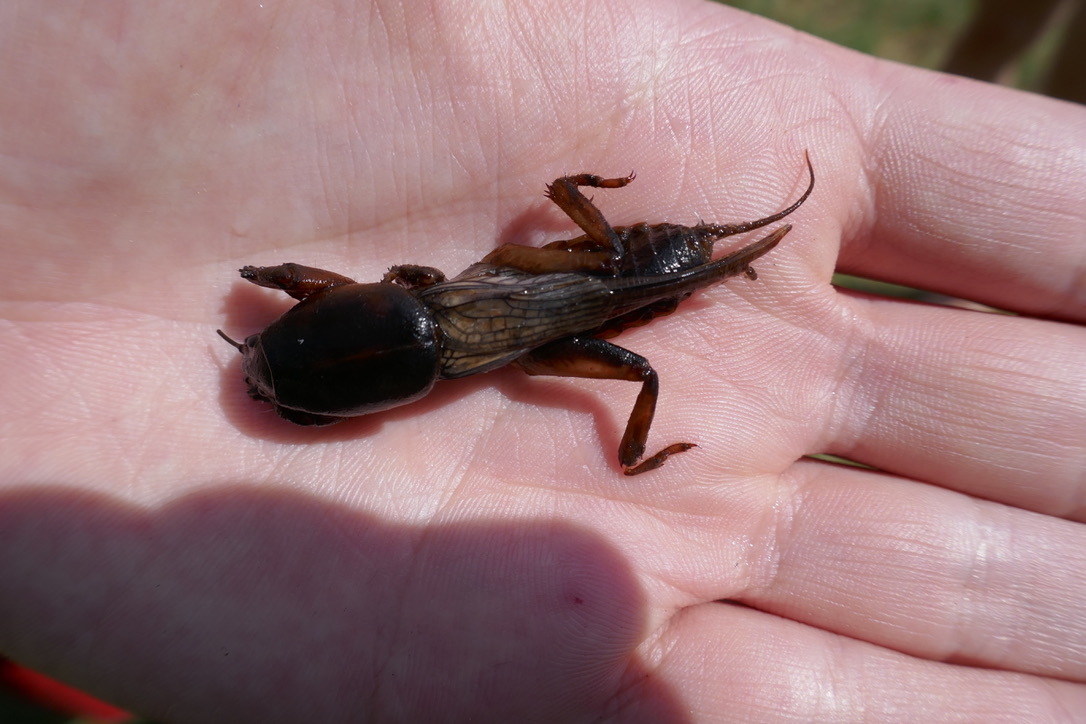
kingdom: Animalia
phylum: Arthropoda
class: Insecta
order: Orthoptera
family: Gryllotalpidae
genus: Gryllotalpa
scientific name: Gryllotalpa gryllotalpa
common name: European mole cricket
